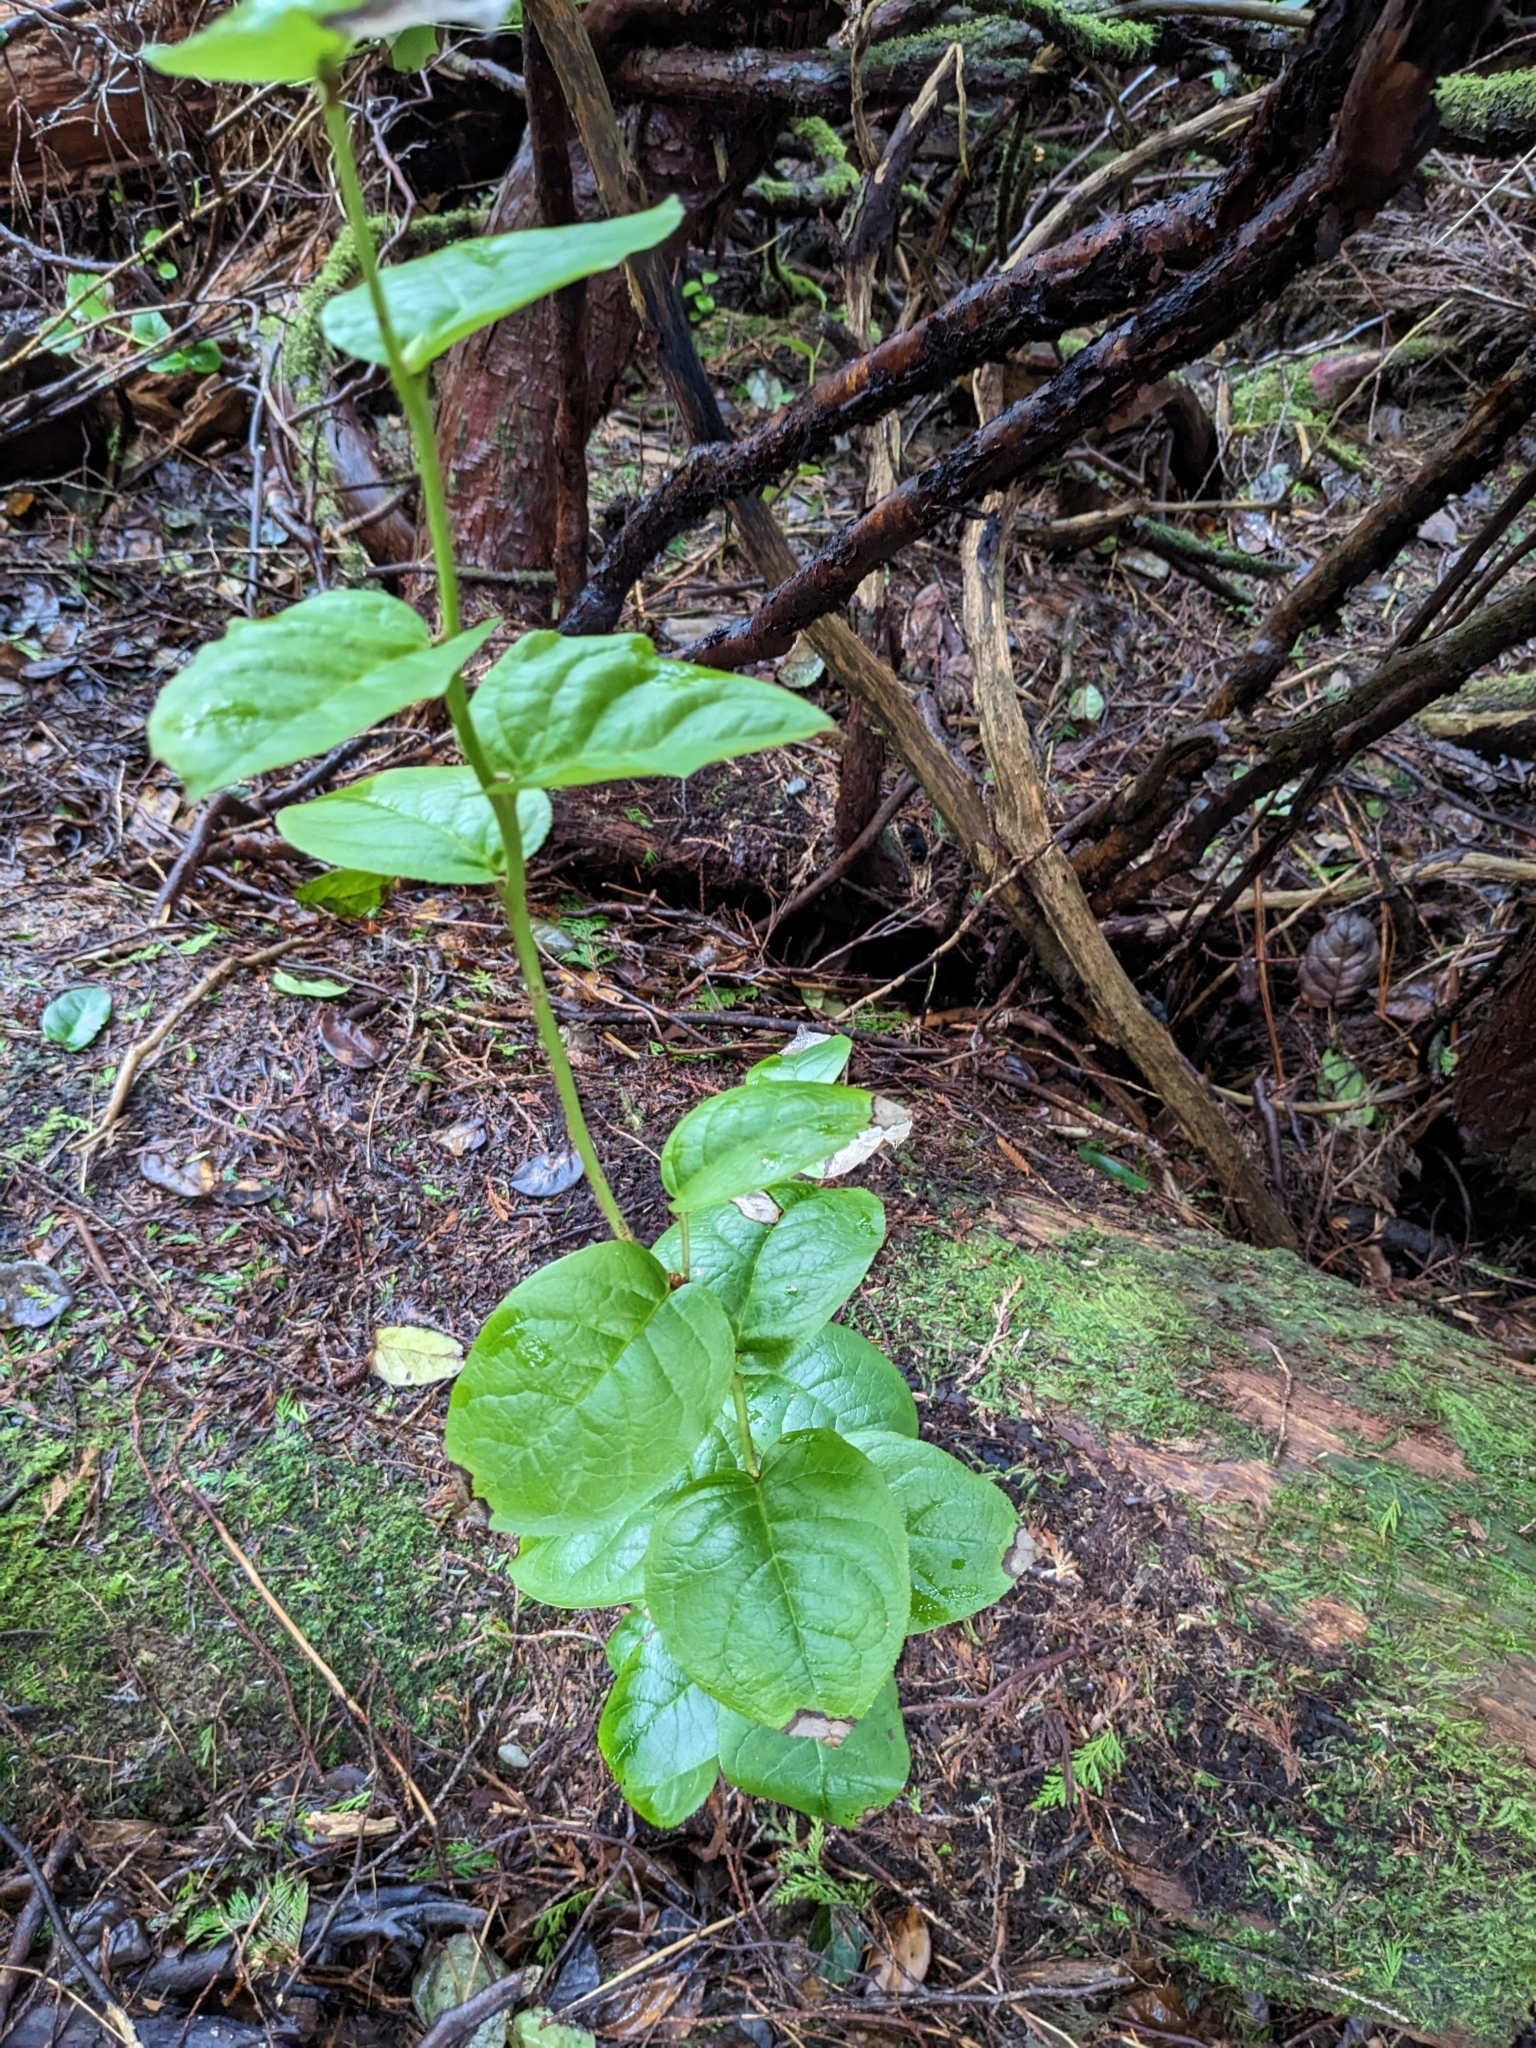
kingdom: Plantae
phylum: Tracheophyta
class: Magnoliopsida
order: Ericales
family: Ericaceae
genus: Gaultheria
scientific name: Gaultheria shallon
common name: Shallon
